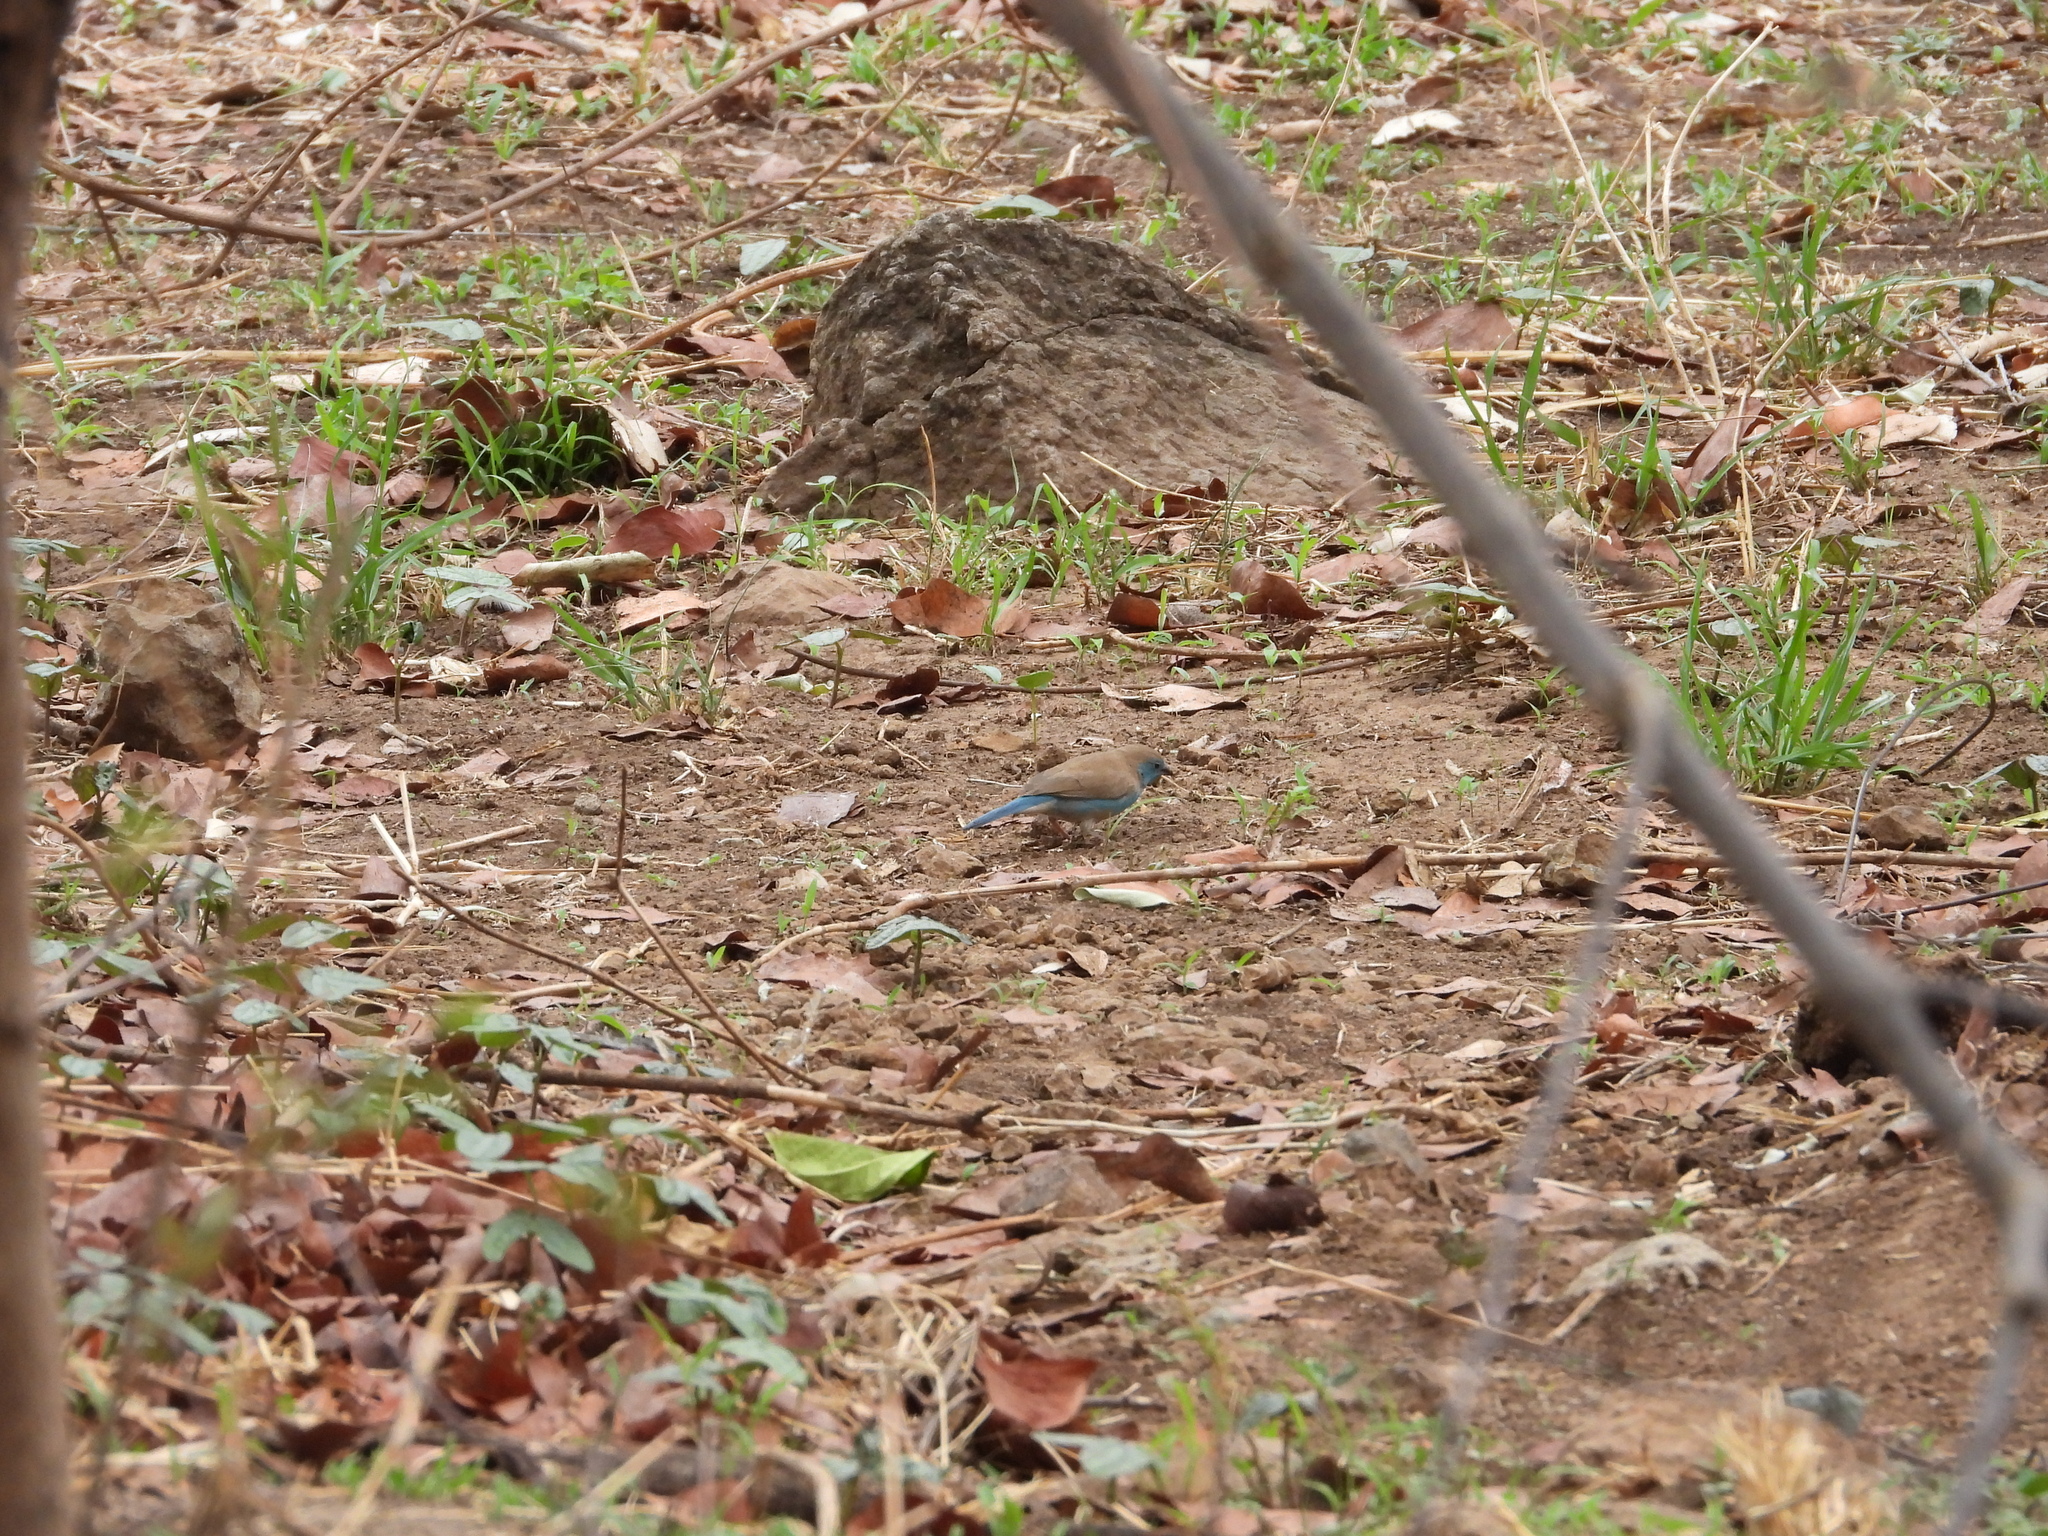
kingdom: Animalia
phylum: Chordata
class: Aves
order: Passeriformes
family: Estrildidae
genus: Uraeginthus
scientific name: Uraeginthus angolensis
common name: Blue waxbill
